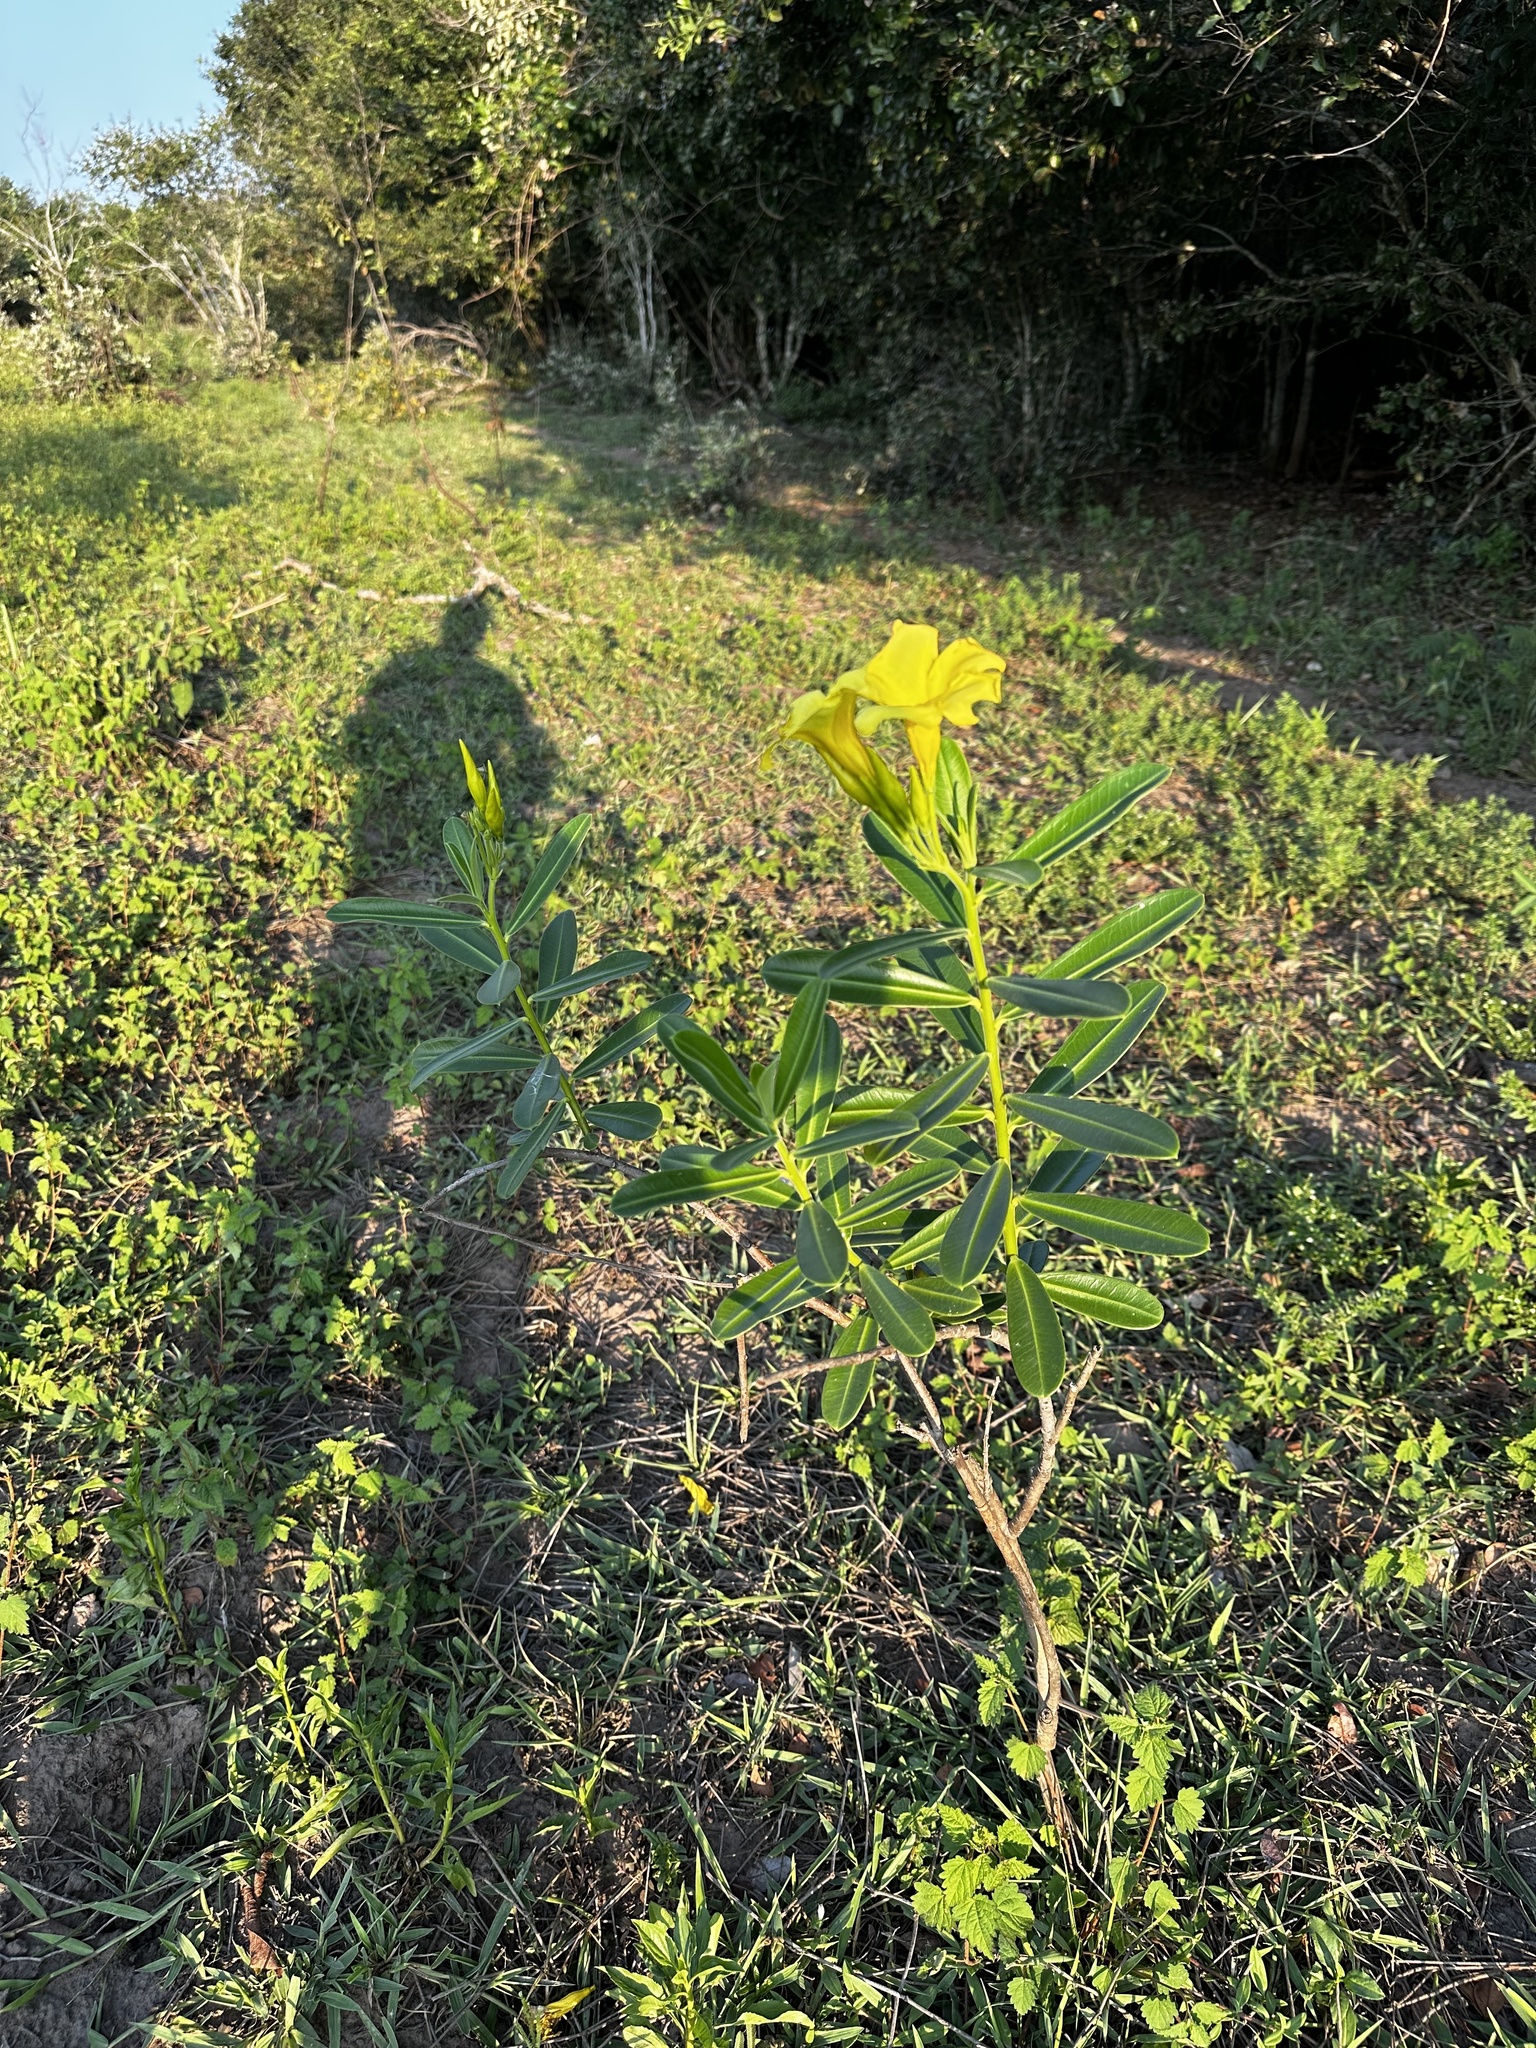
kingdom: Plantae
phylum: Tracheophyta
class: Magnoliopsida
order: Gentianales
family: Apocynaceae
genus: Allamanda
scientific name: Allamanda cathartica
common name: Golden trumpet
